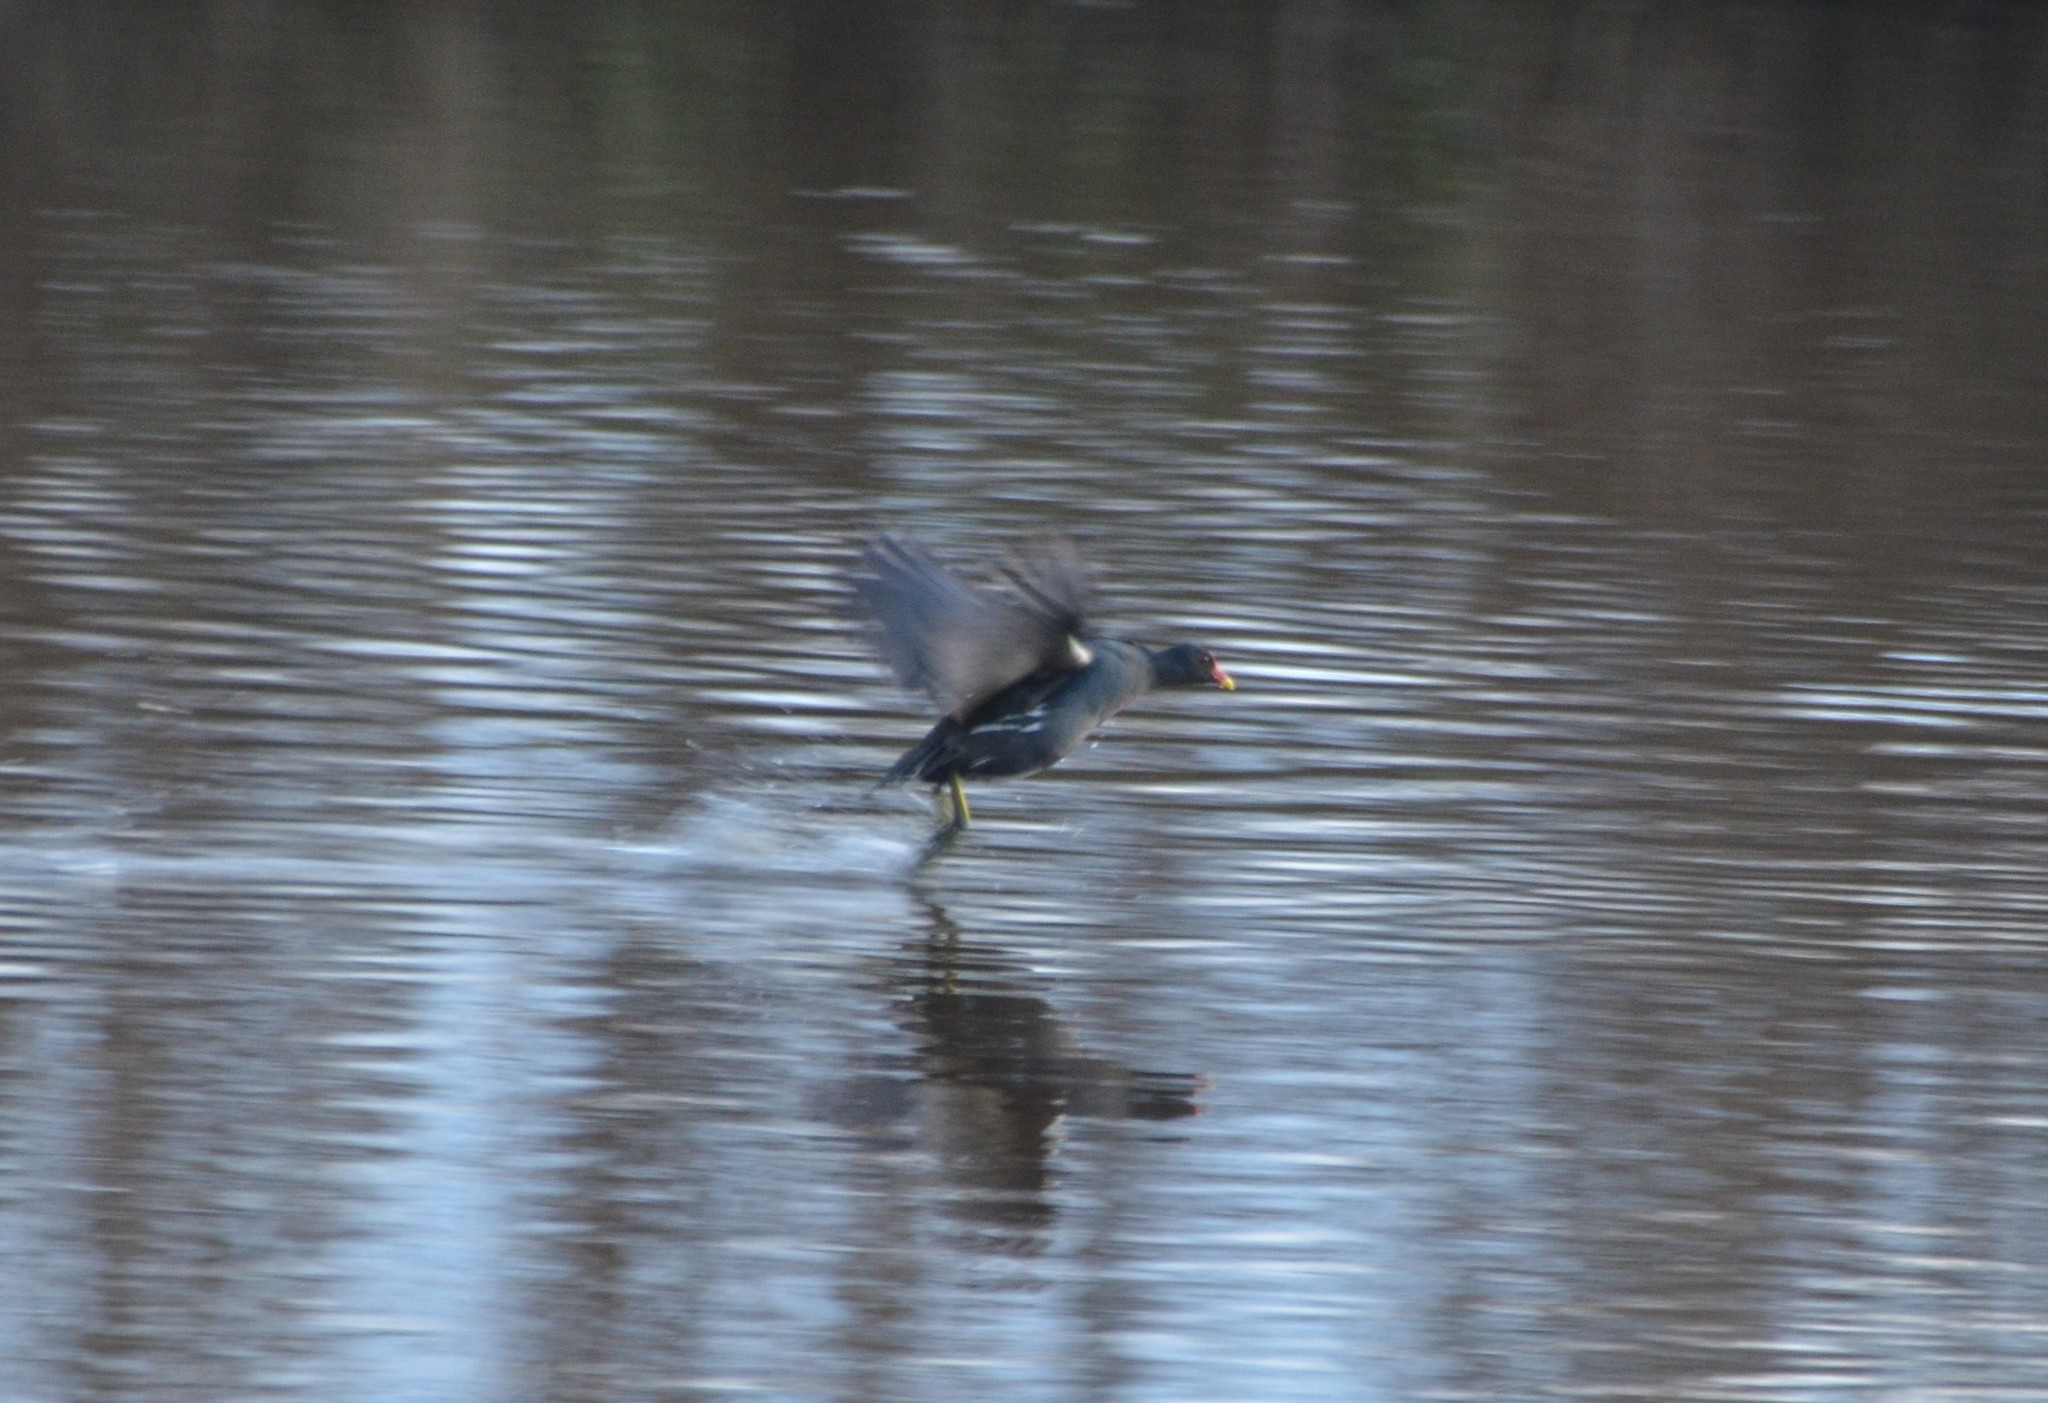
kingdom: Animalia
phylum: Chordata
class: Aves
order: Gruiformes
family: Rallidae
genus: Gallinula
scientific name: Gallinula chloropus
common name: Common moorhen
